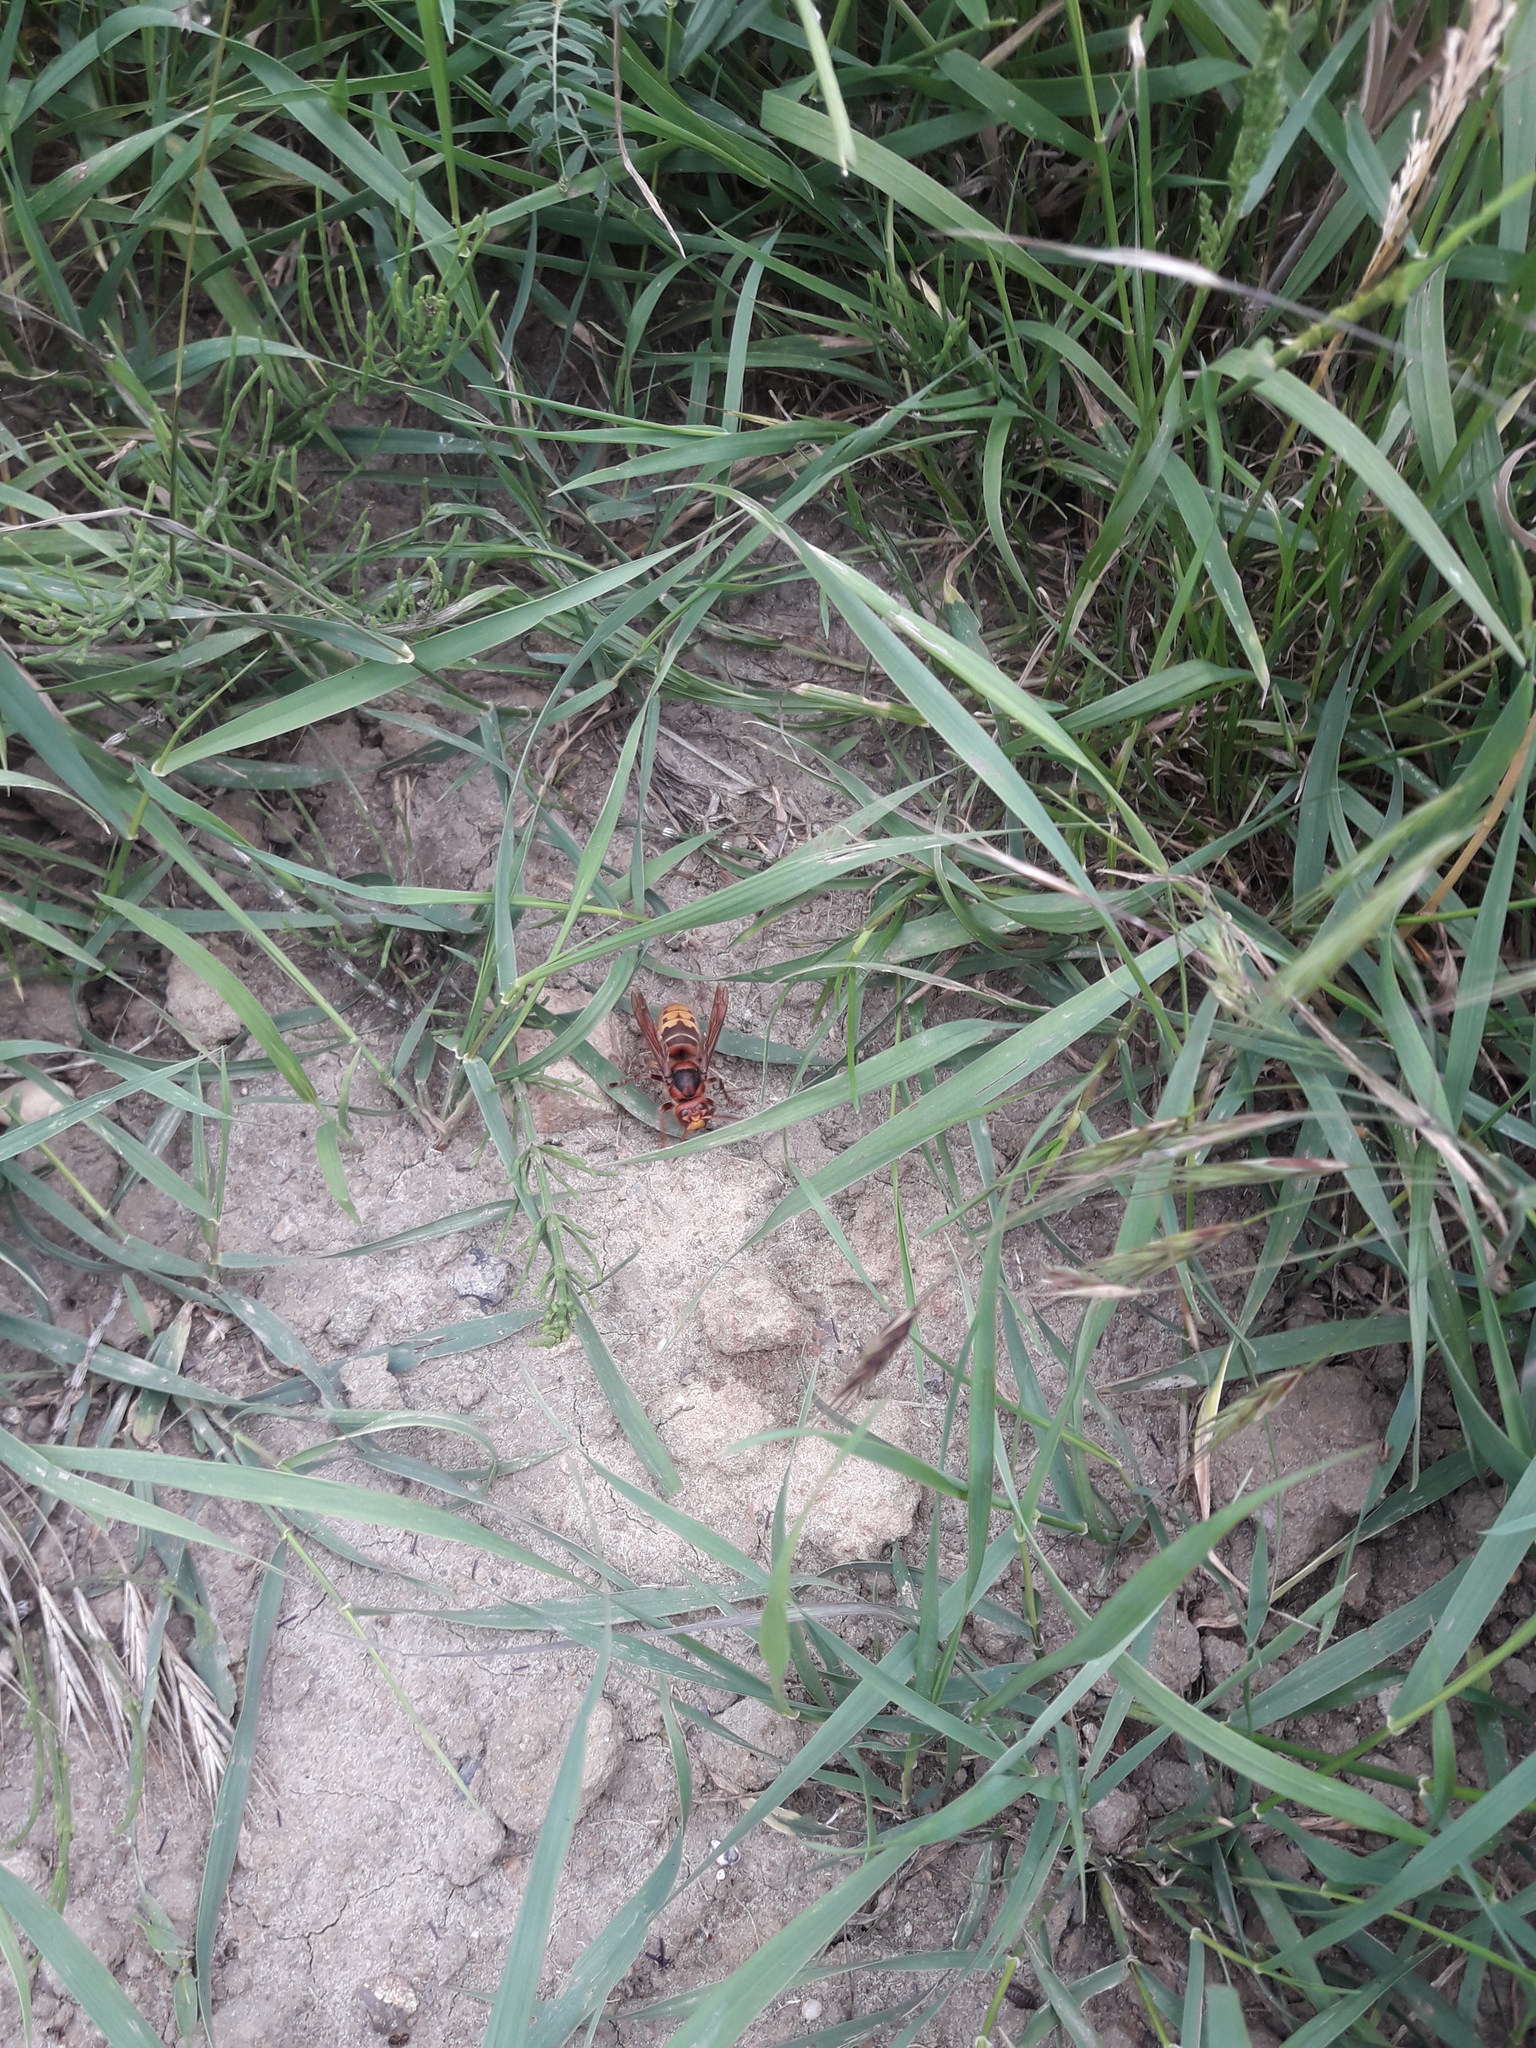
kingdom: Animalia
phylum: Arthropoda
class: Insecta
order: Hymenoptera
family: Vespidae
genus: Vespa
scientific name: Vespa crabro
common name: Hornet
